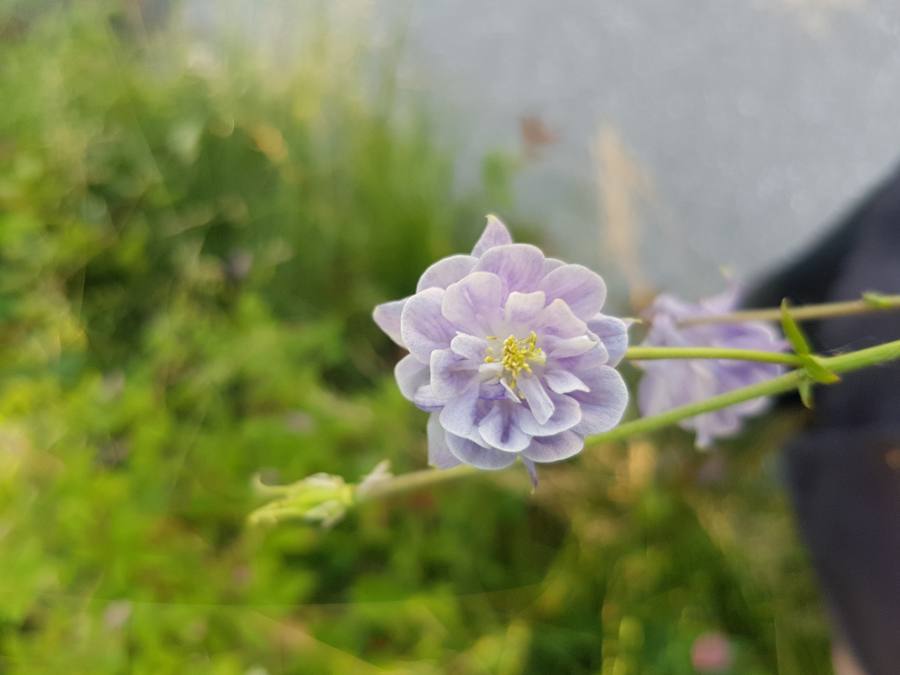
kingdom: Plantae
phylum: Tracheophyta
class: Magnoliopsida
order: Ranunculales
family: Ranunculaceae
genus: Aquilegia
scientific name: Aquilegia vulgaris
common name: Columbine
